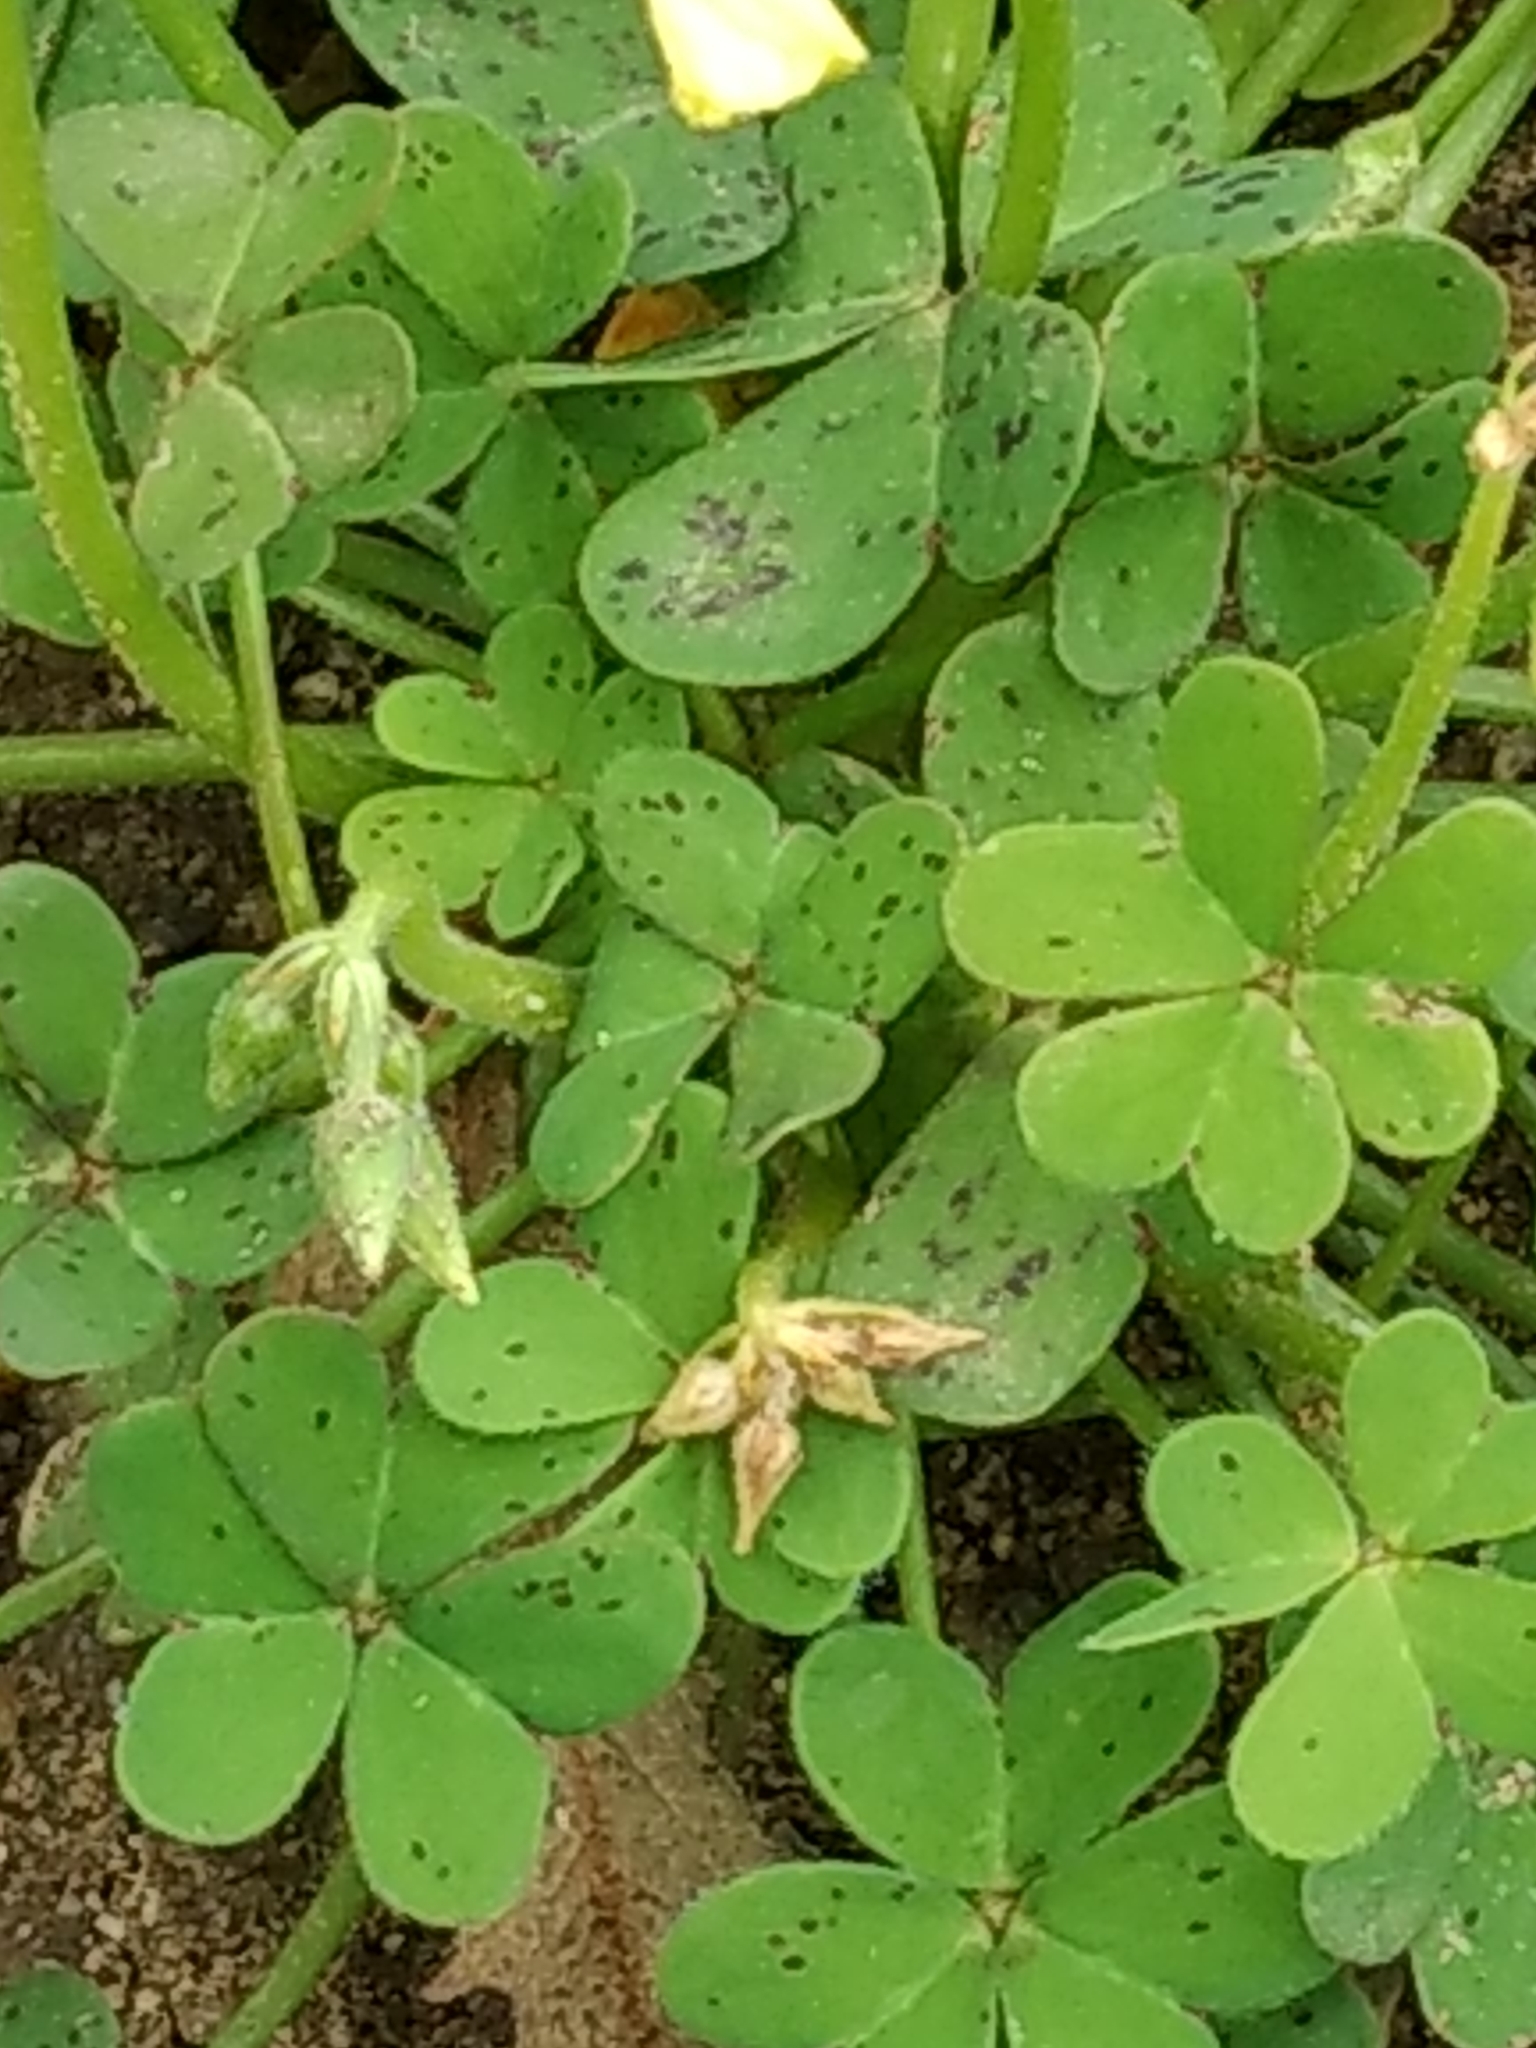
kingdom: Plantae
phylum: Tracheophyta
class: Magnoliopsida
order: Oxalidales
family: Oxalidaceae
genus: Oxalis
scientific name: Oxalis pes-caprae
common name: Bermuda-buttercup
